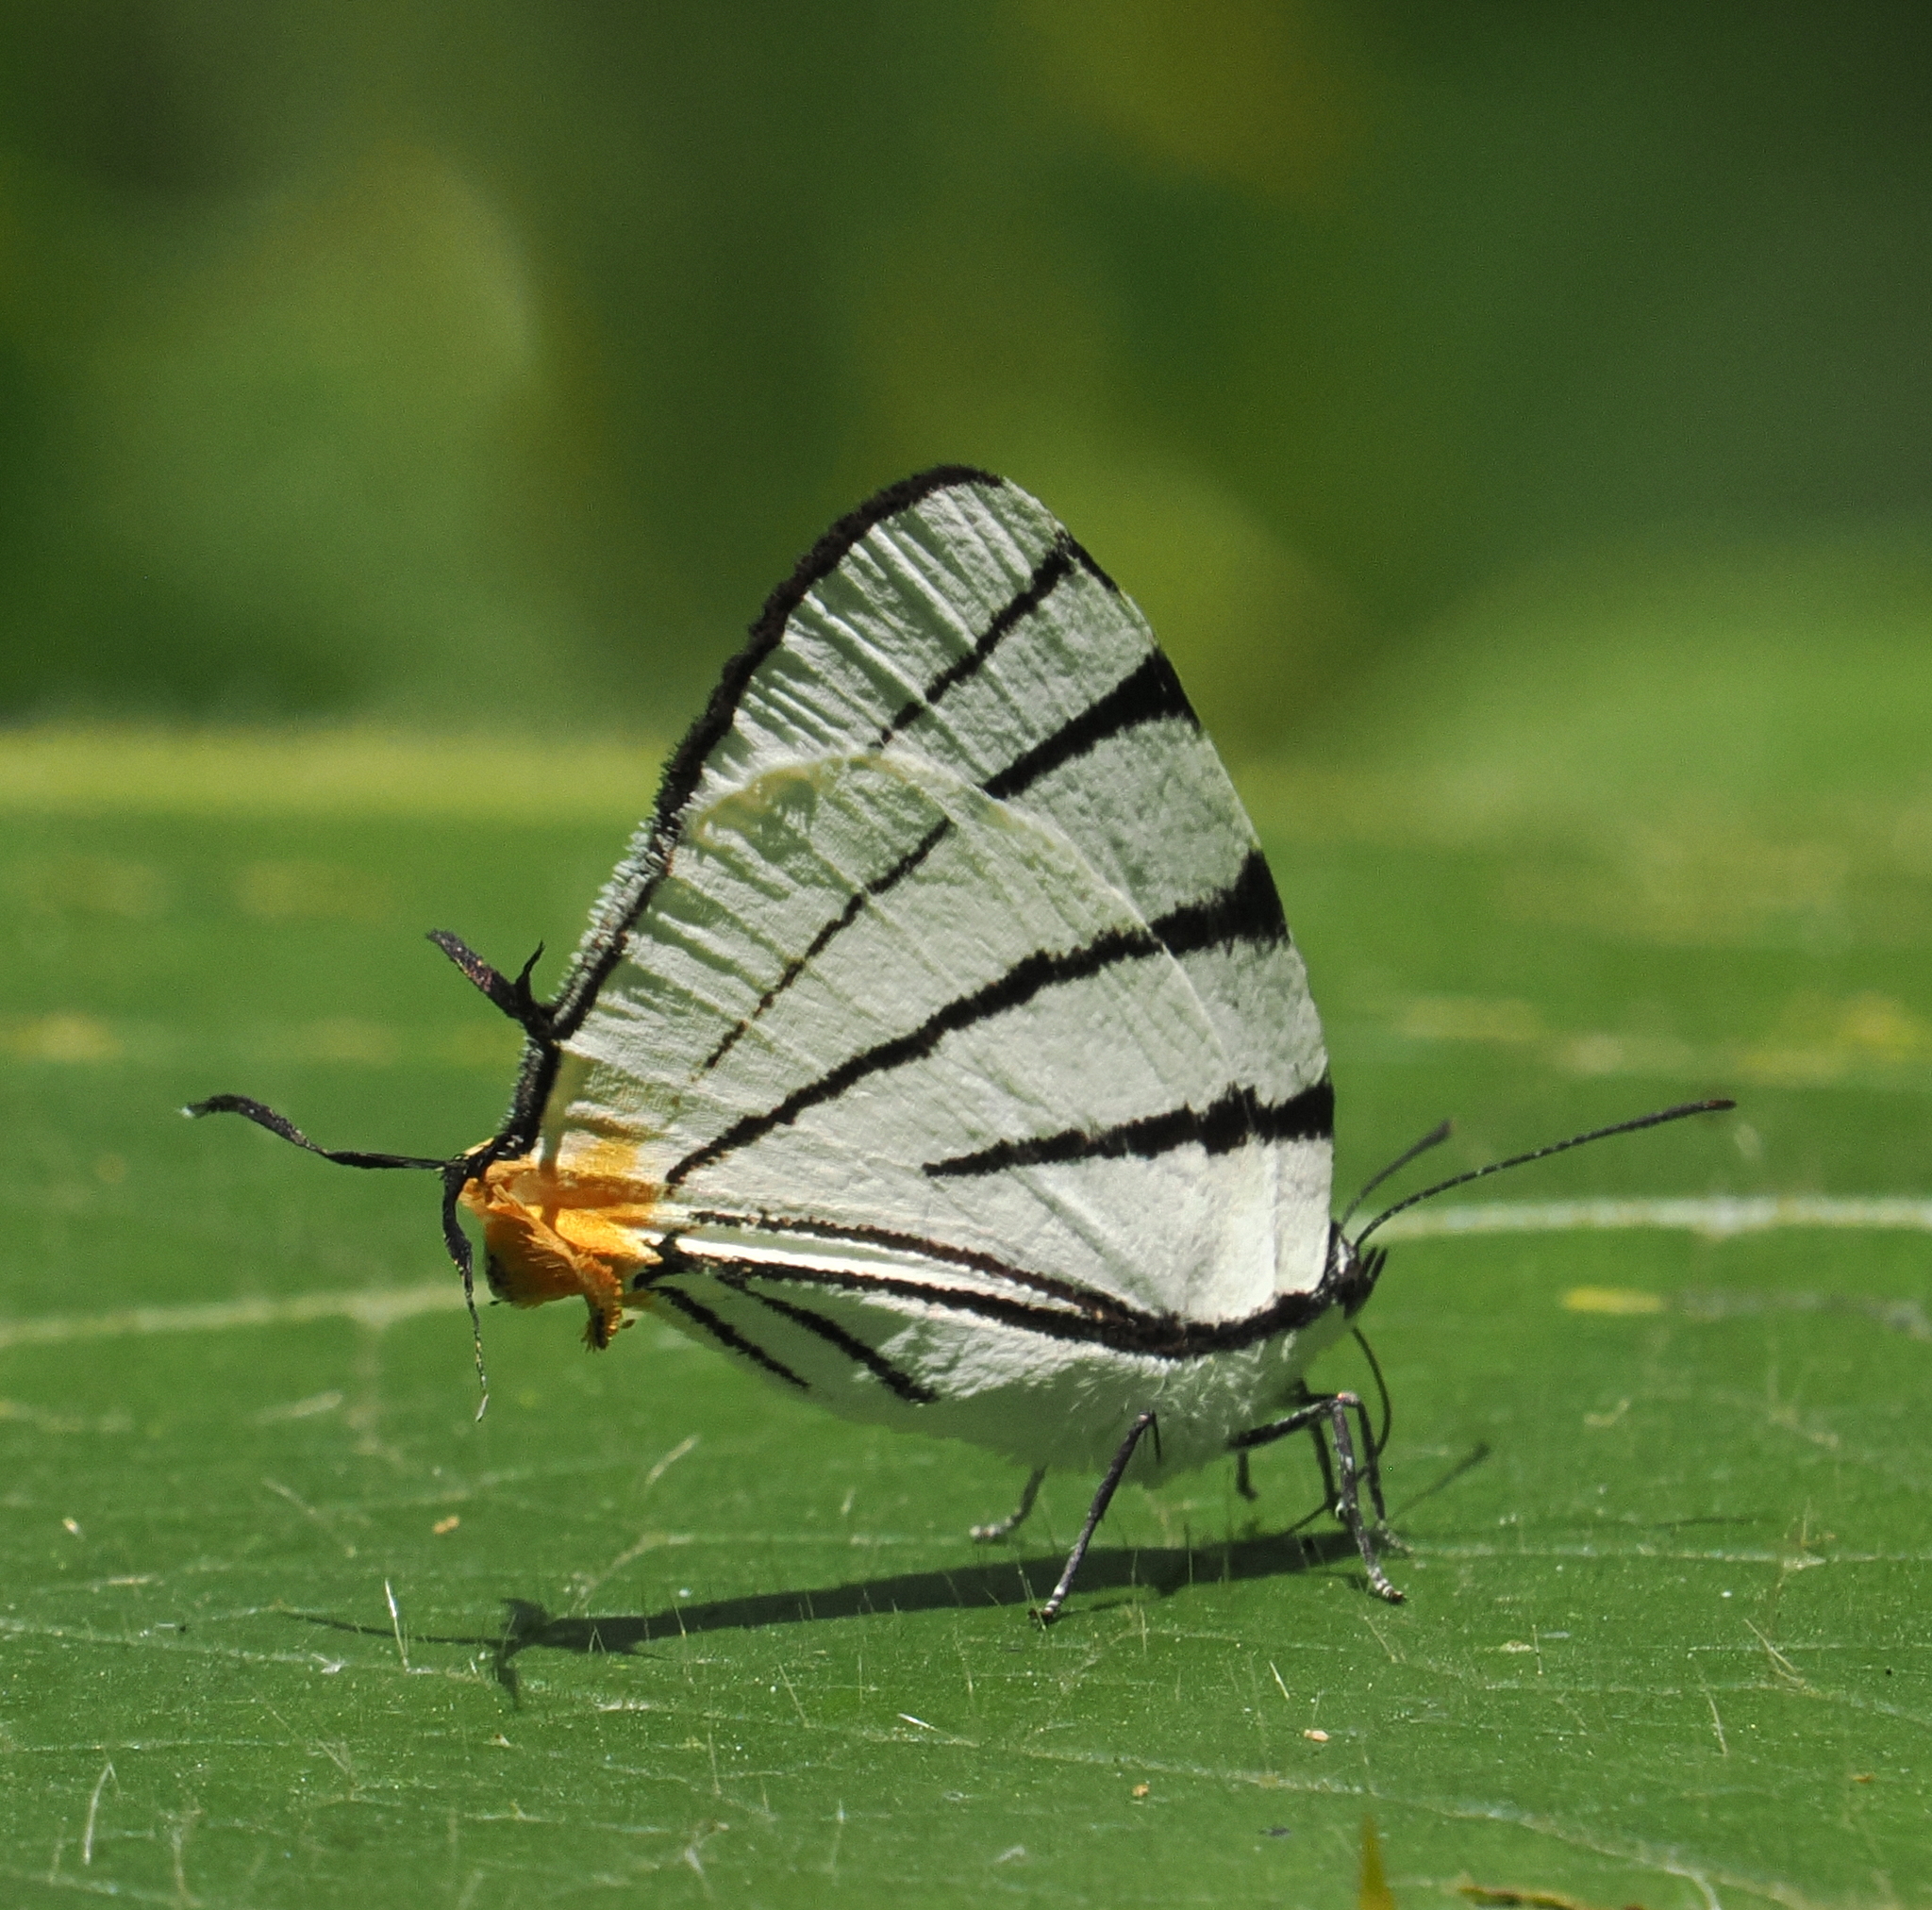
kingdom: Animalia
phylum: Arthropoda
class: Insecta
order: Lepidoptera
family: Lycaenidae
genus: Arawacus
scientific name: Arawacus leucogyna
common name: Black-tipped stripe-streak
